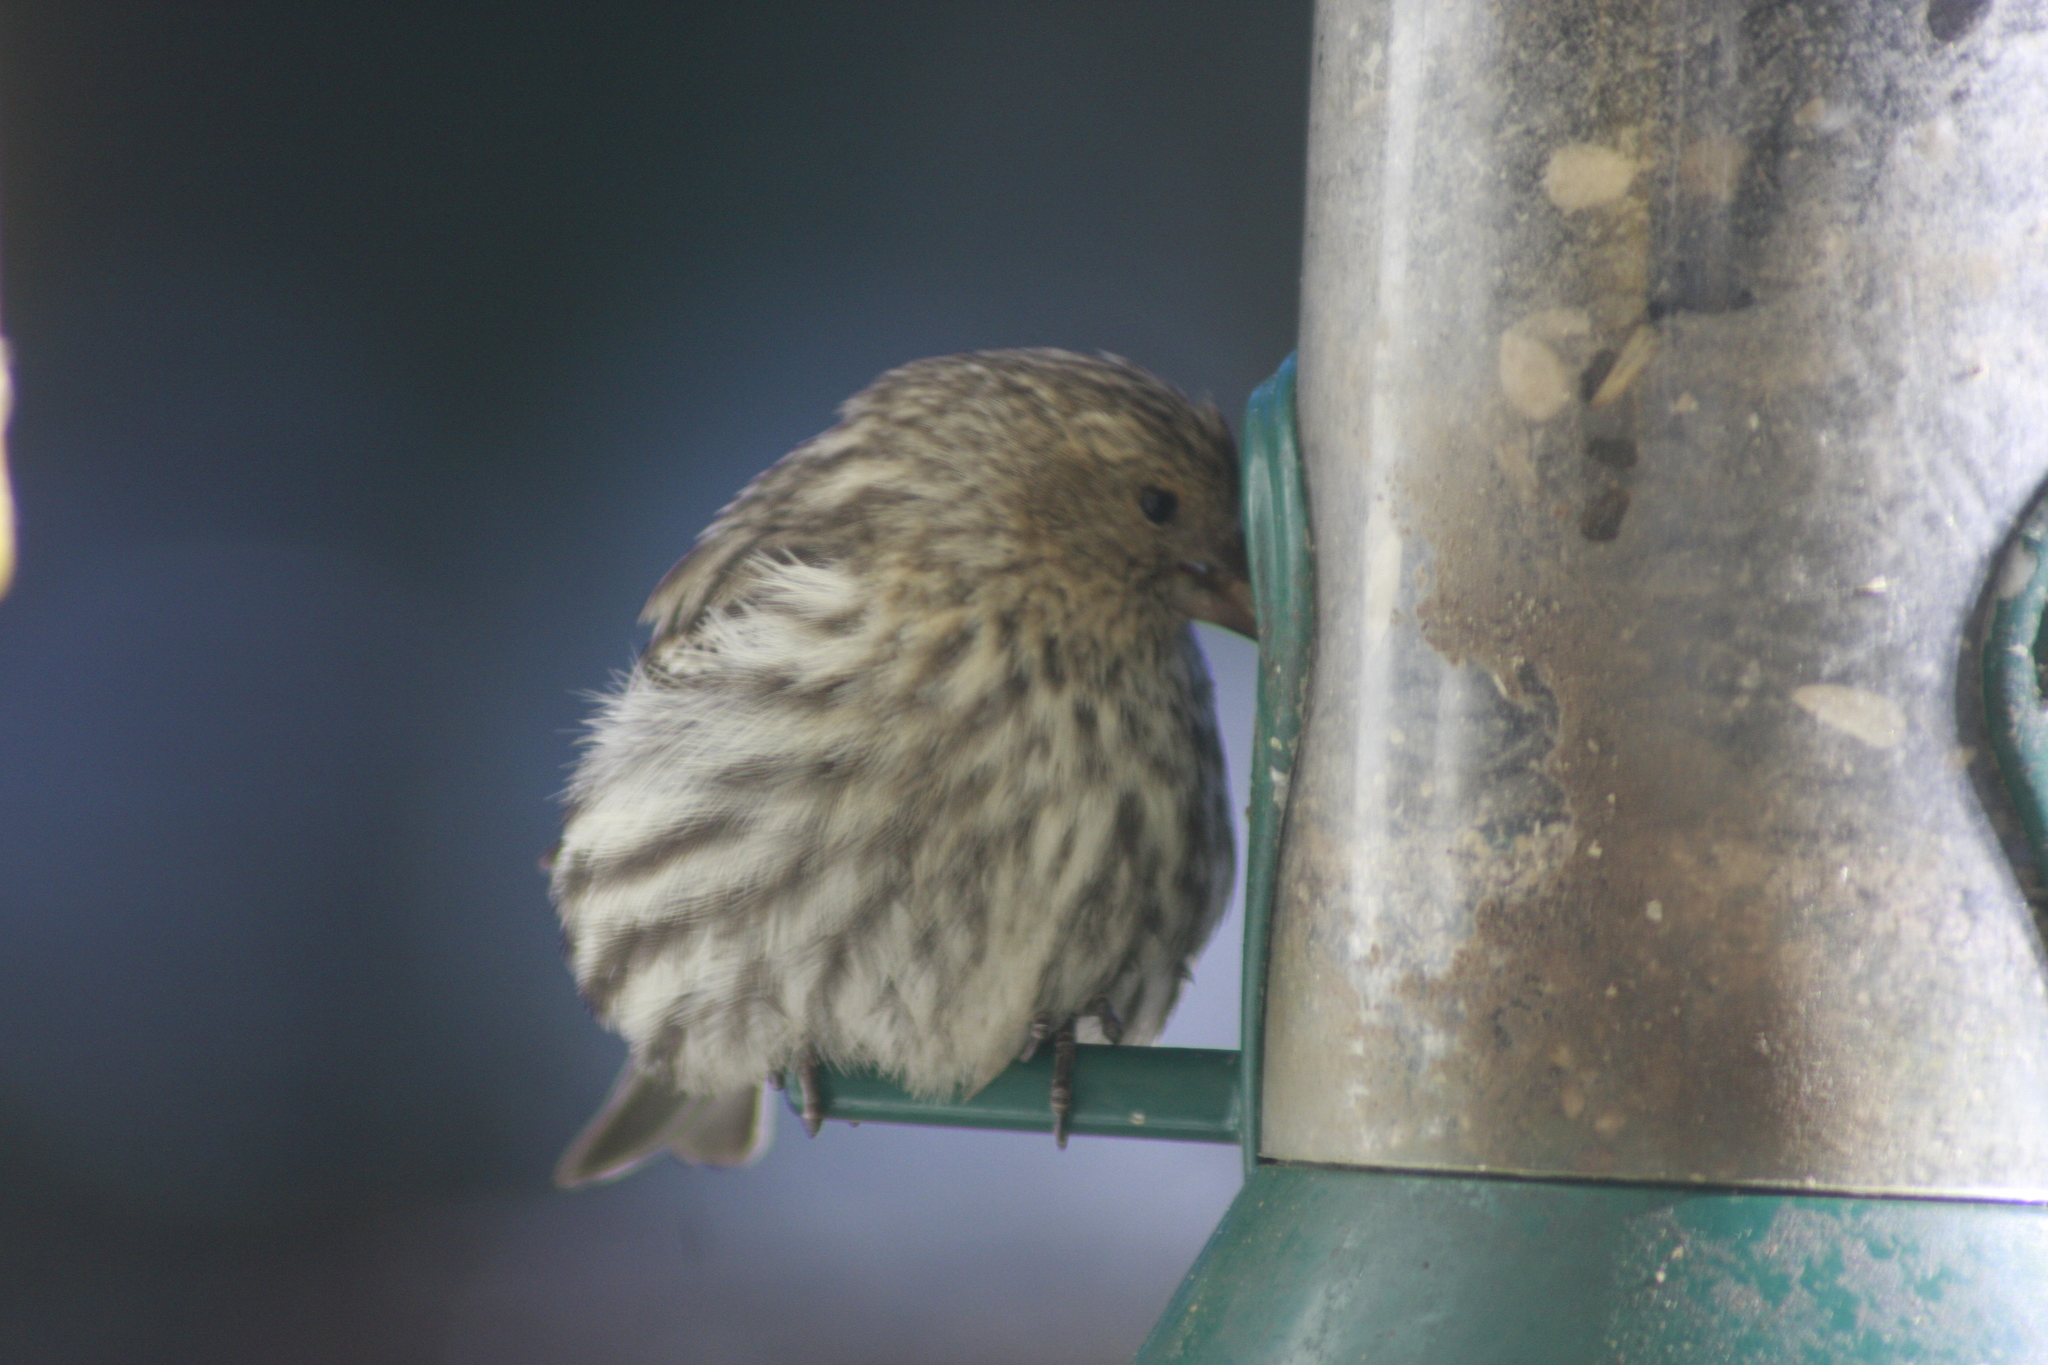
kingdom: Animalia
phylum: Chordata
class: Aves
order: Passeriformes
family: Fringillidae
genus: Spinus
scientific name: Spinus pinus
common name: Pine siskin
